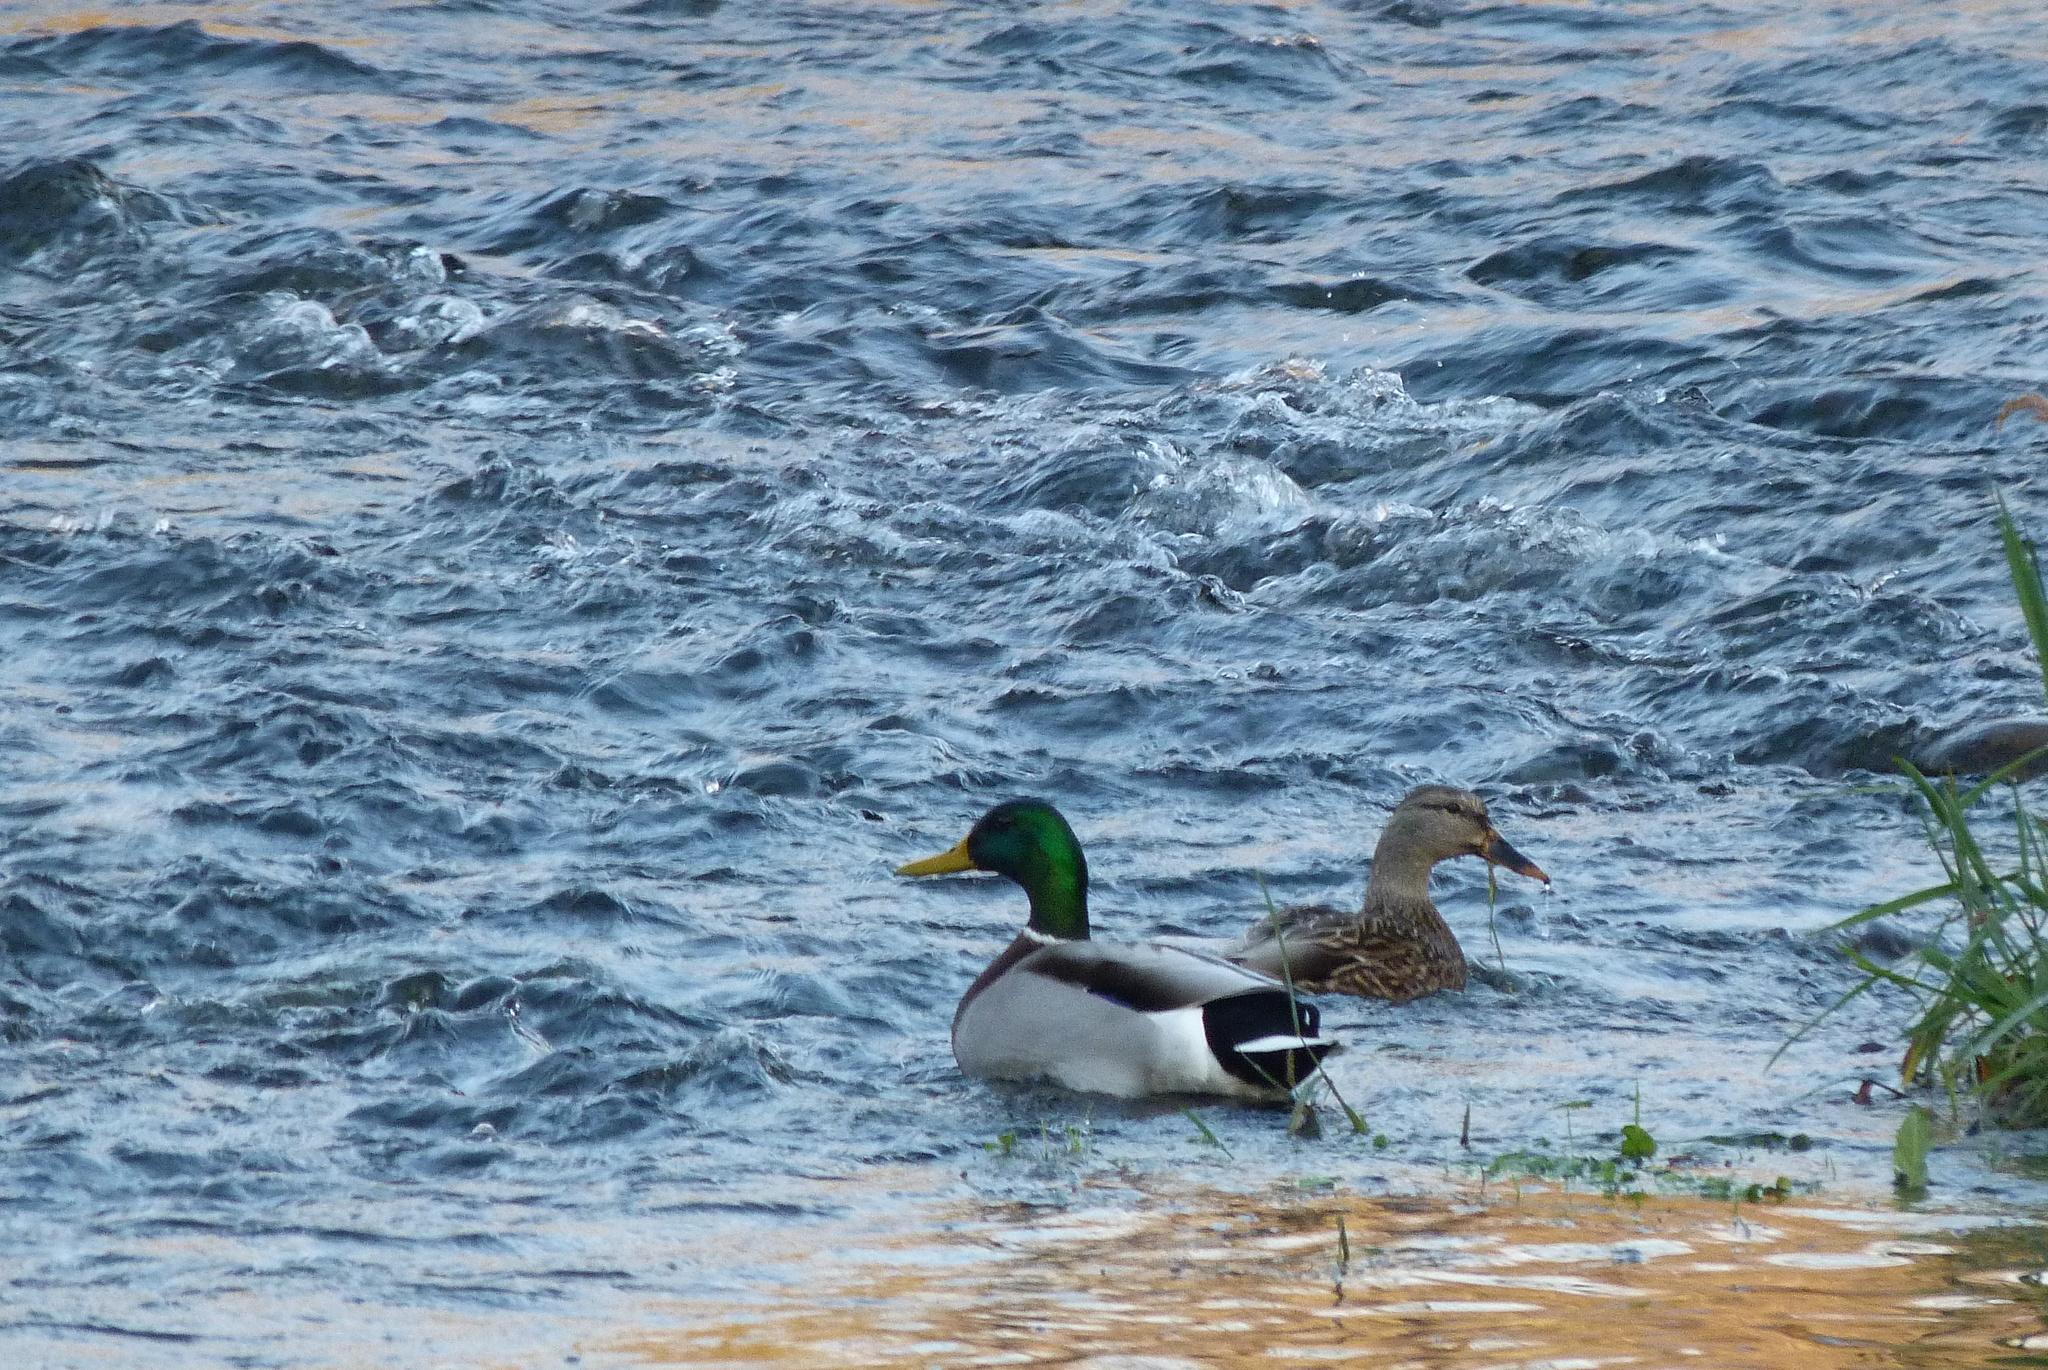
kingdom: Animalia
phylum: Chordata
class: Aves
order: Anseriformes
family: Anatidae
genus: Anas
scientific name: Anas platyrhynchos
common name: Mallard
